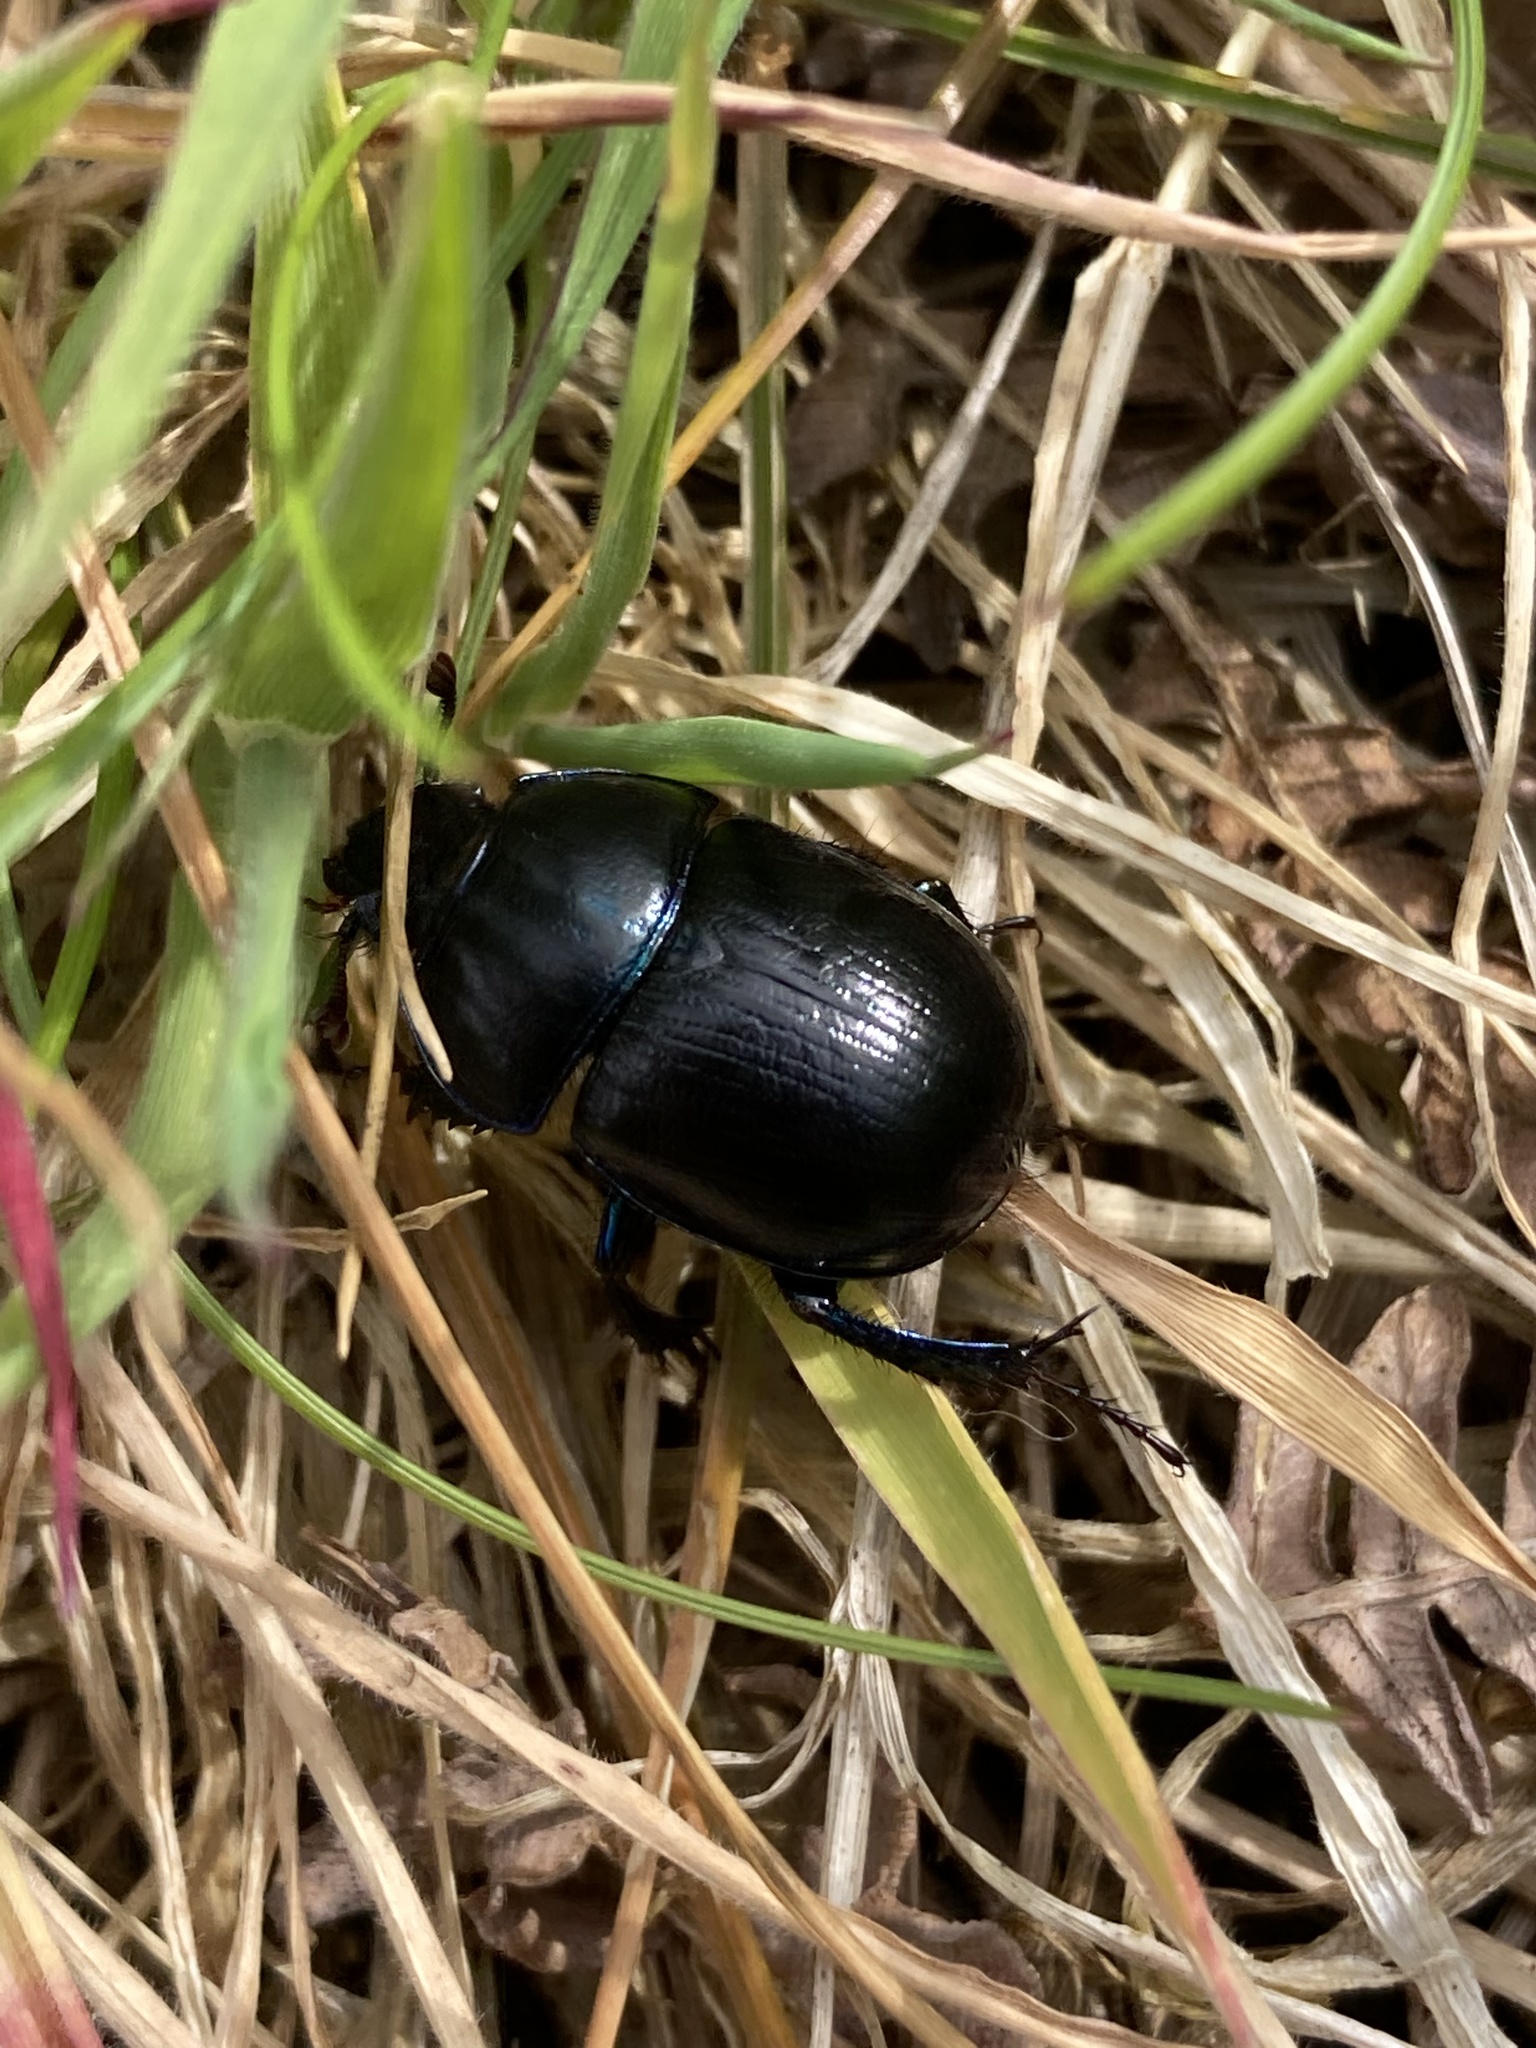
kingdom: Animalia
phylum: Arthropoda
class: Insecta
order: Coleoptera
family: Geotrupidae
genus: Anoplotrupes
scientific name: Anoplotrupes stercorosus
